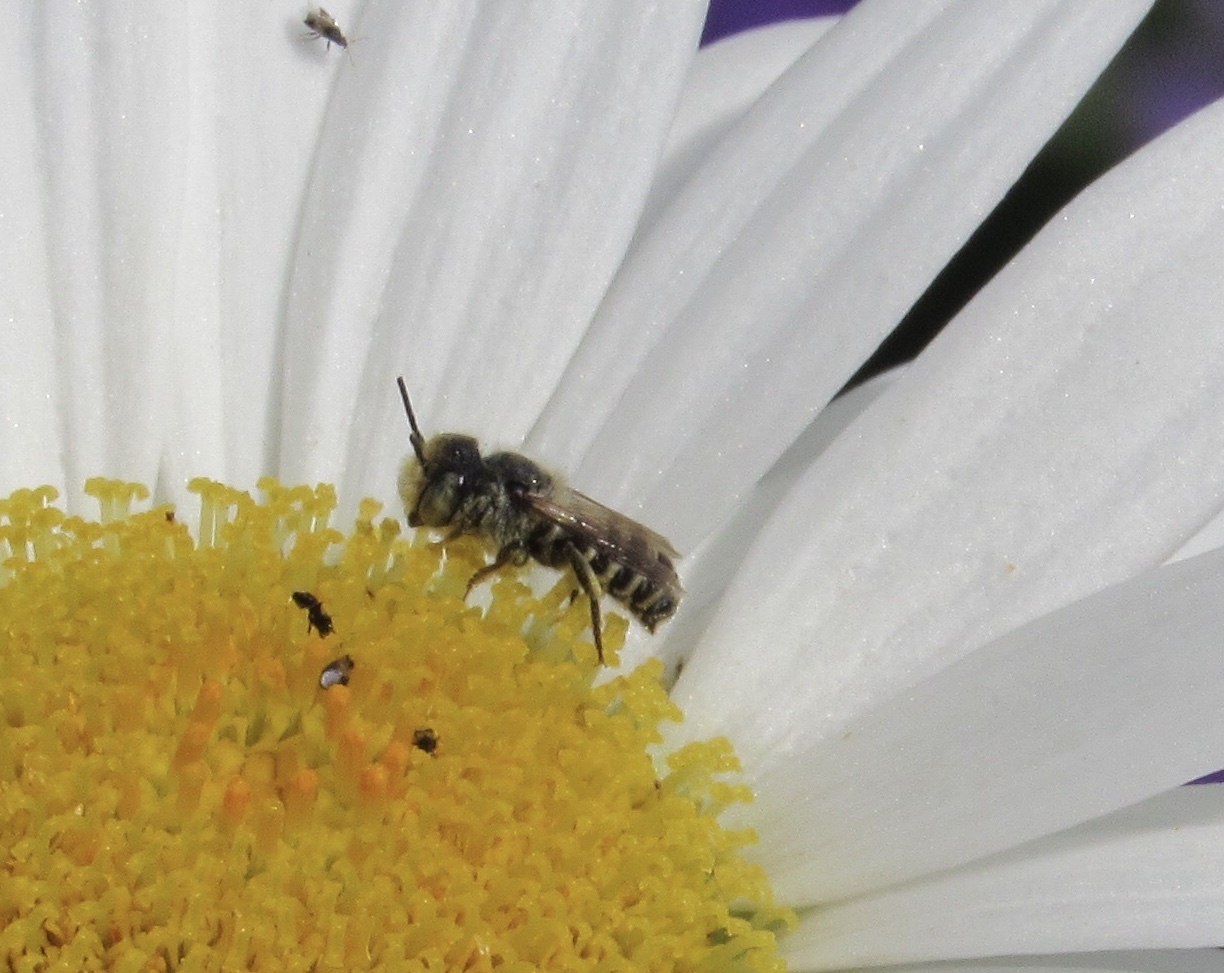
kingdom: Animalia
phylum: Arthropoda
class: Insecta
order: Hymenoptera
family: Megachilidae
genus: Megachile
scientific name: Megachile rotundata
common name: Alfalfa leafcutting bee
